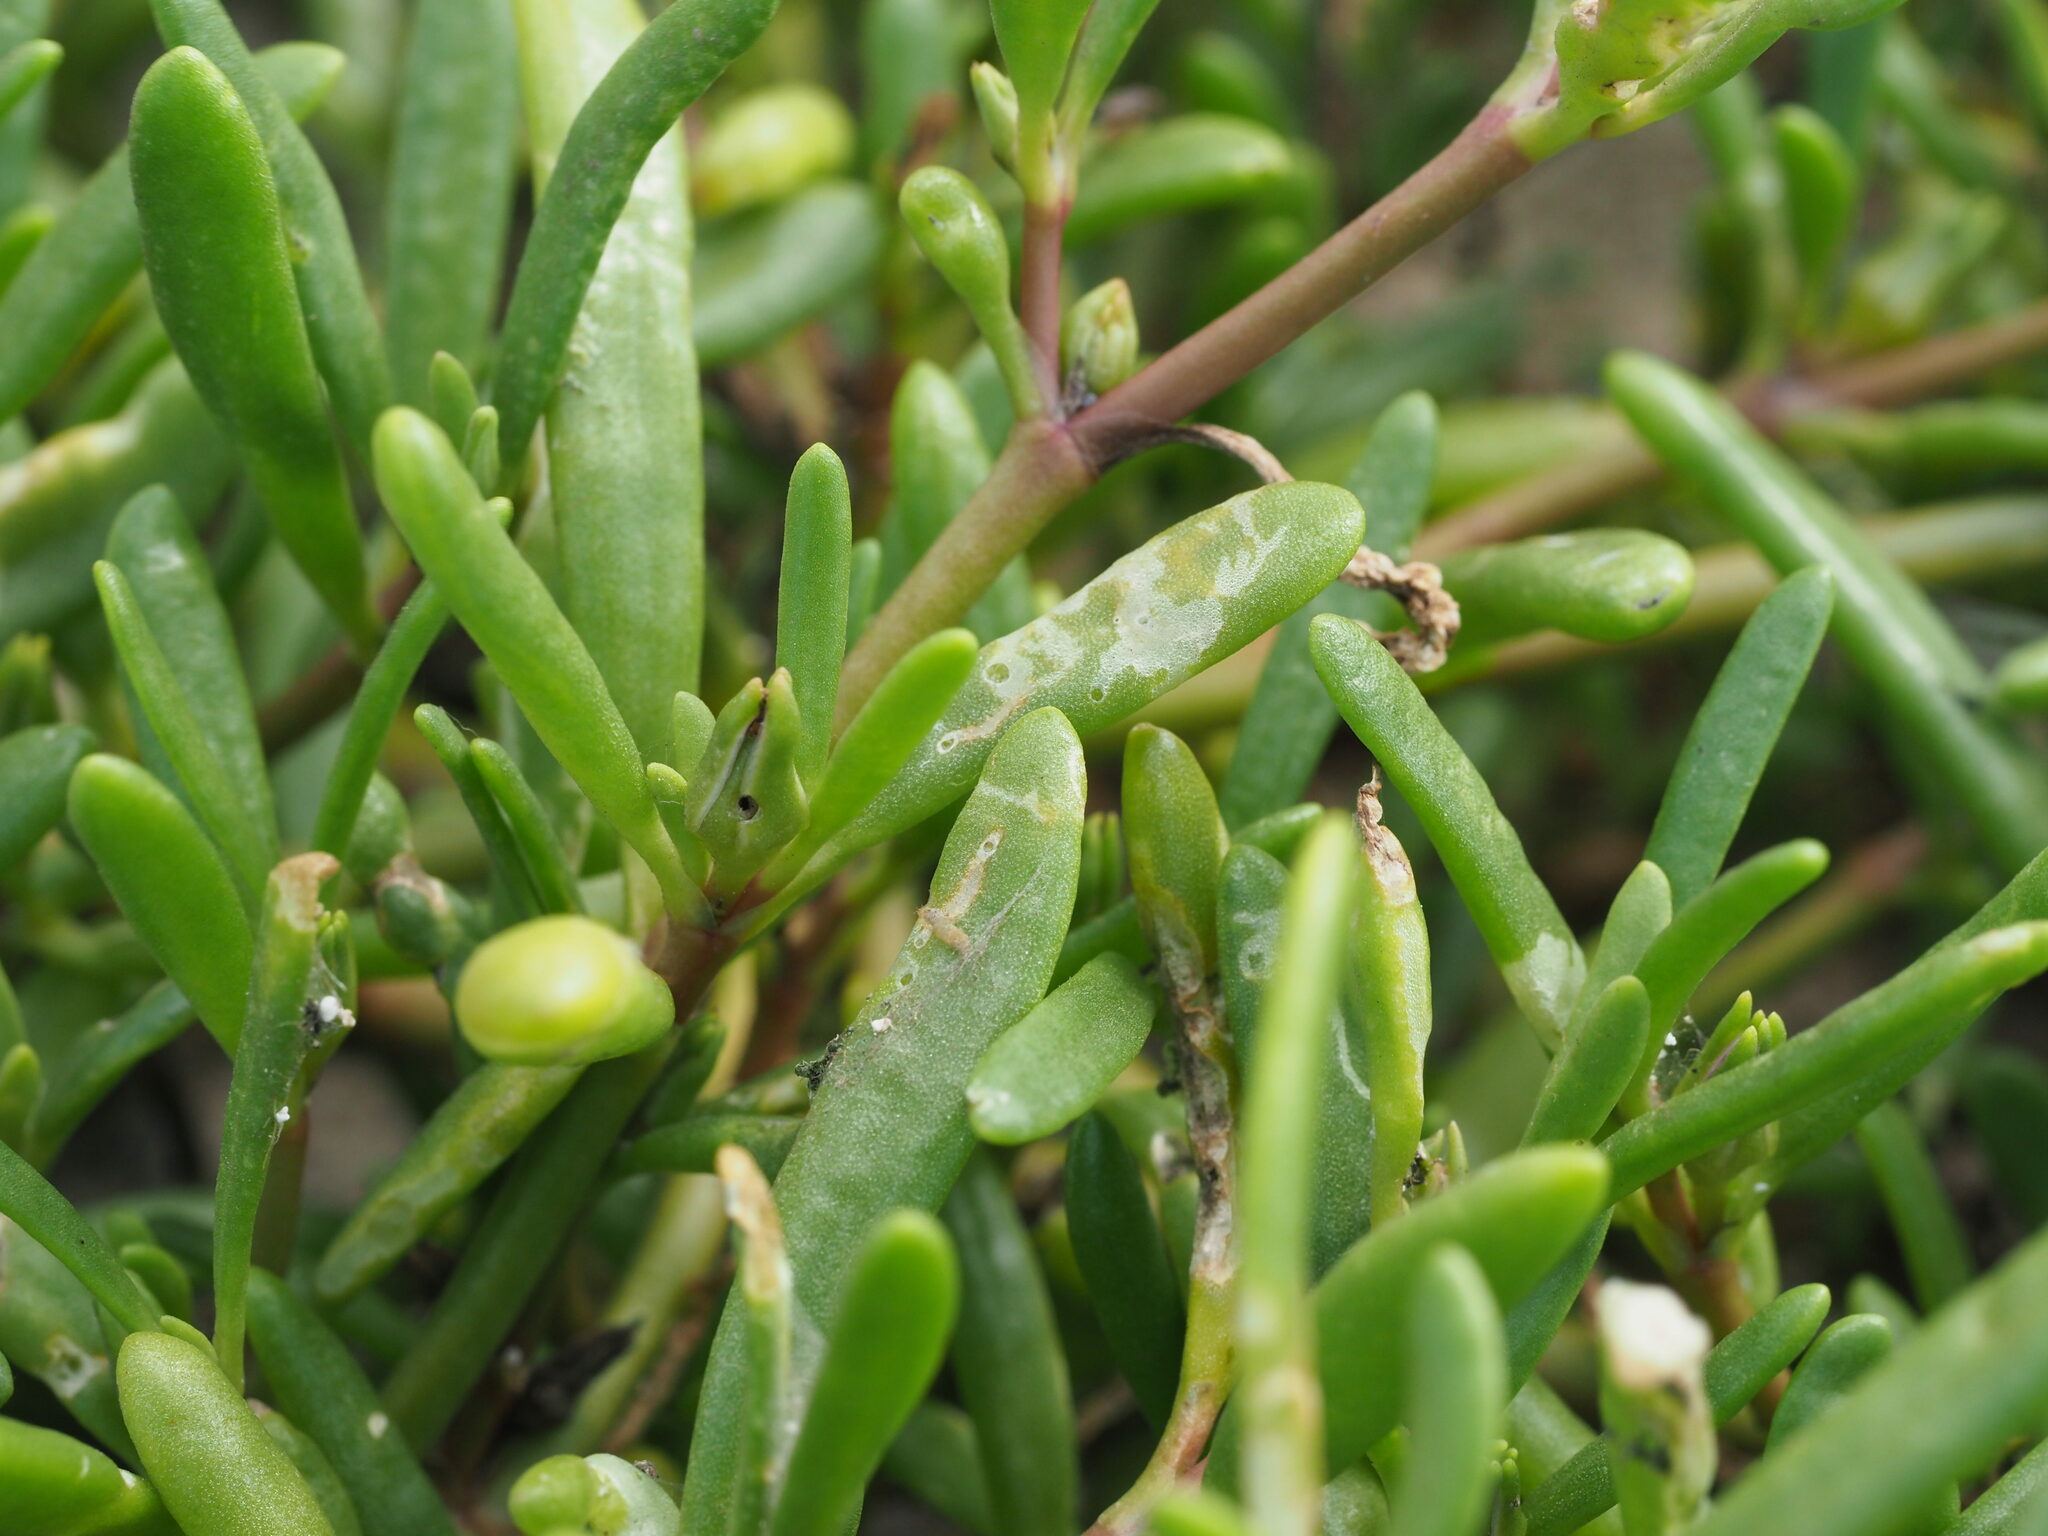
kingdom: Animalia
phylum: Arthropoda
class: Insecta
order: Lepidoptera
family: Heliodinidae
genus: Heliodines
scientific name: Heliodines
